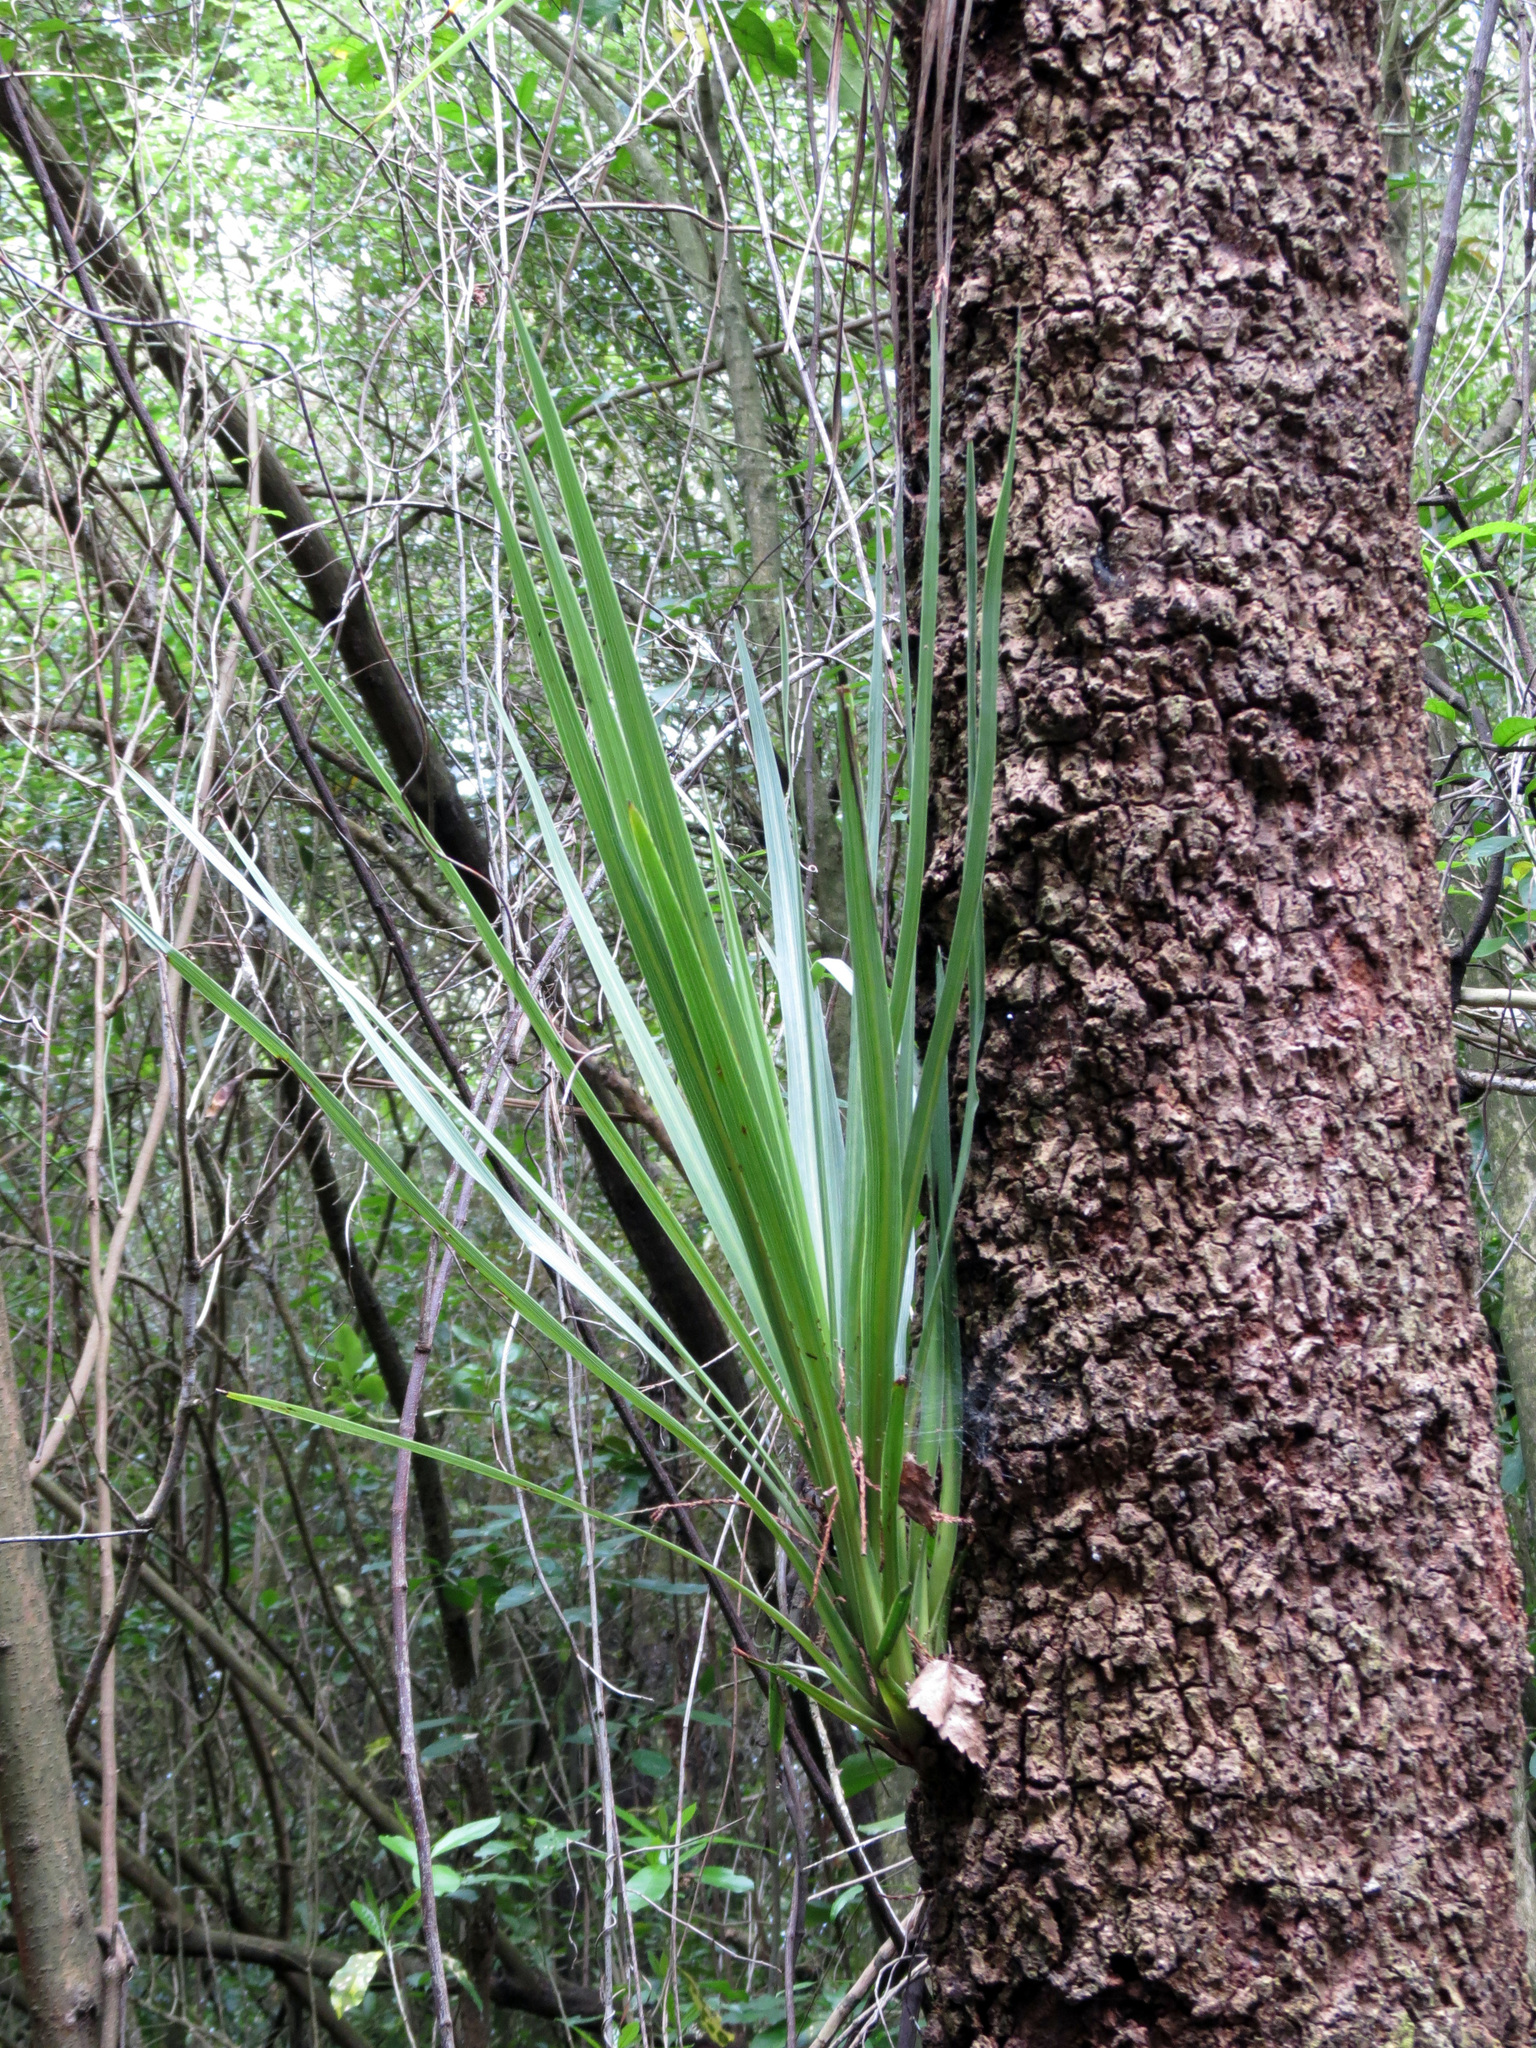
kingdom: Plantae
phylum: Tracheophyta
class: Liliopsida
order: Asparagales
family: Asparagaceae
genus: Cordyline
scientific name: Cordyline australis
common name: Cabbage-palm
